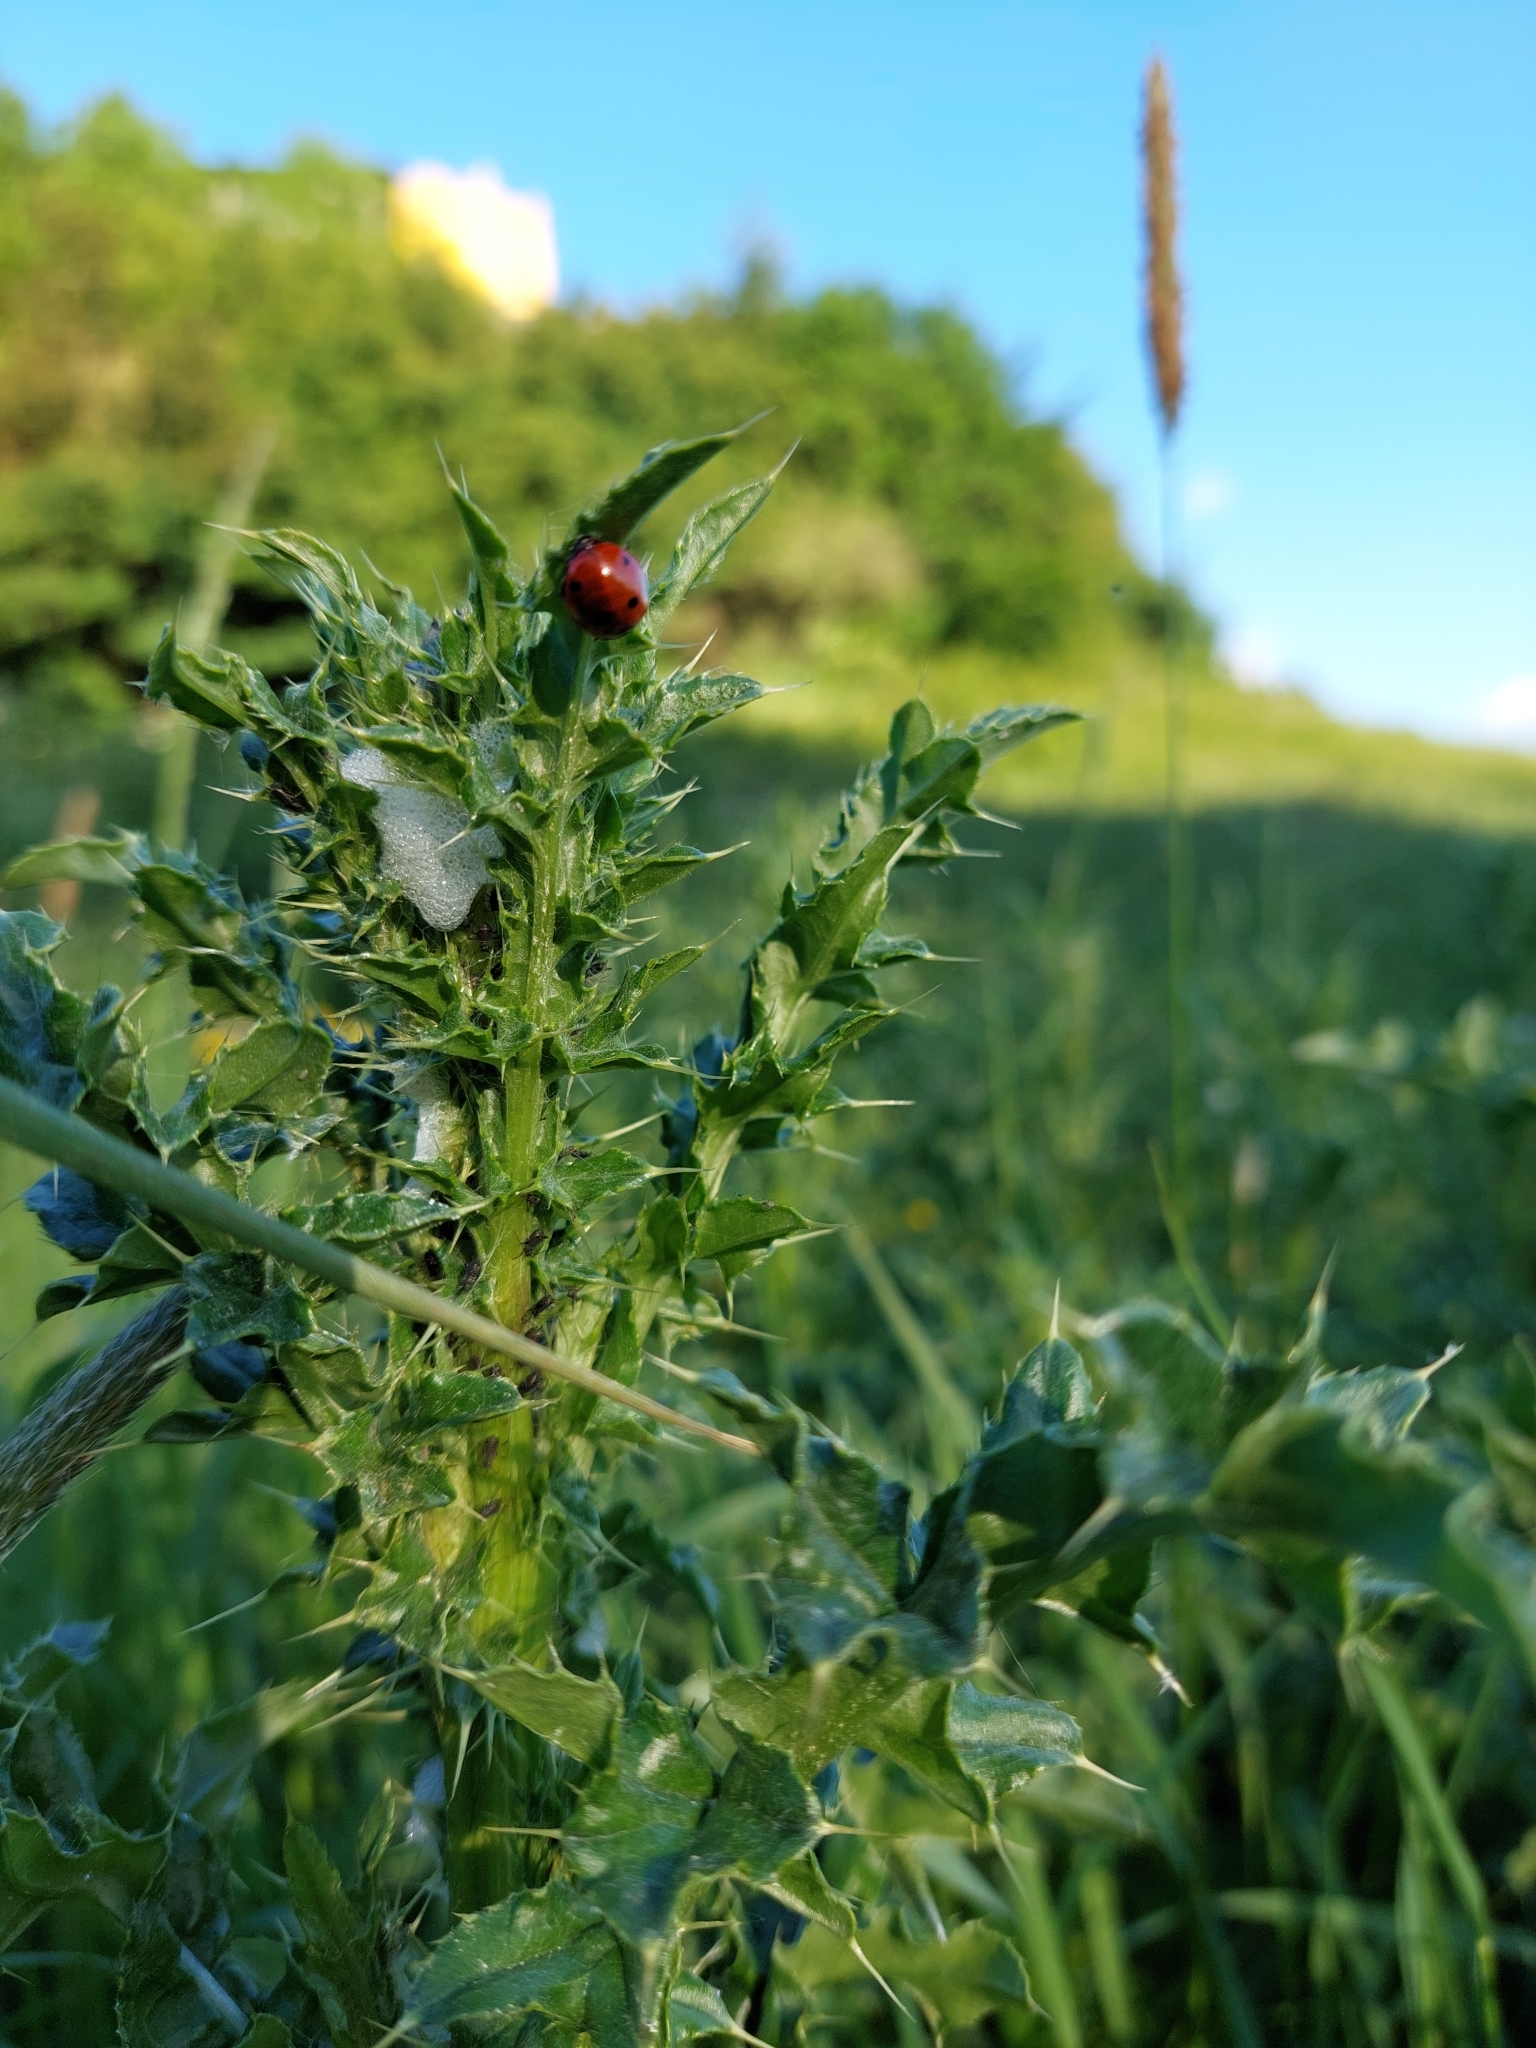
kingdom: Animalia
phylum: Arthropoda
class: Insecta
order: Coleoptera
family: Coccinellidae
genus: Coccinella
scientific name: Coccinella septempunctata
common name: Sevenspotted lady beetle
